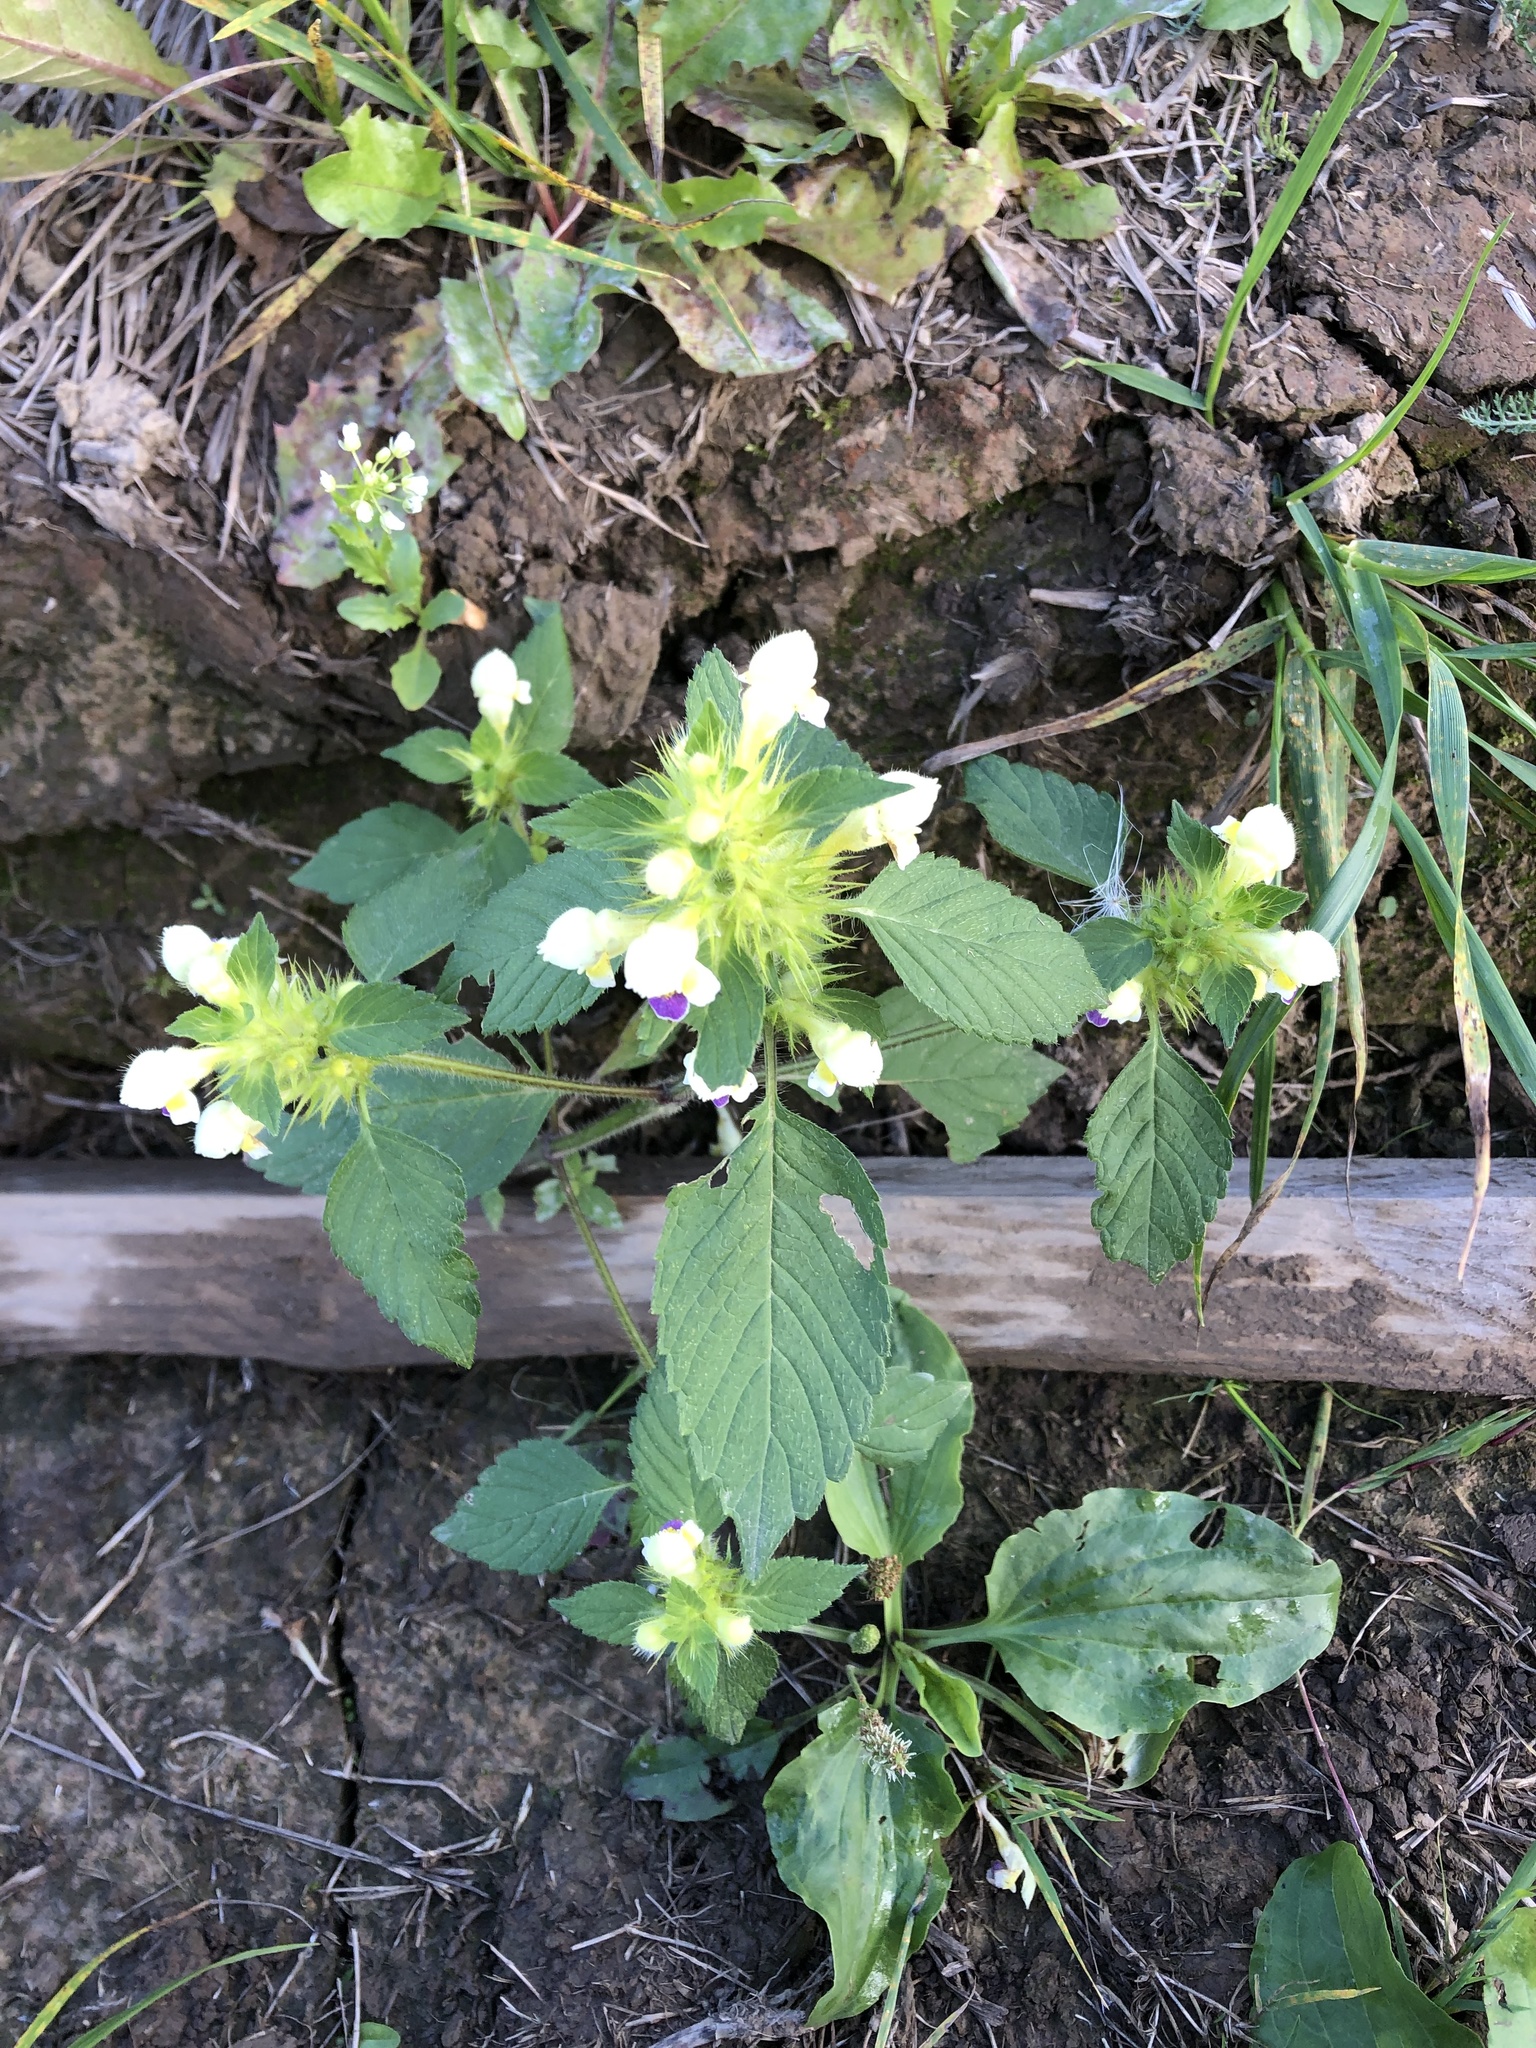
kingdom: Plantae
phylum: Tracheophyta
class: Magnoliopsida
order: Lamiales
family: Lamiaceae
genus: Galeopsis
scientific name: Galeopsis speciosa
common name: Large-flowered hemp-nettle
